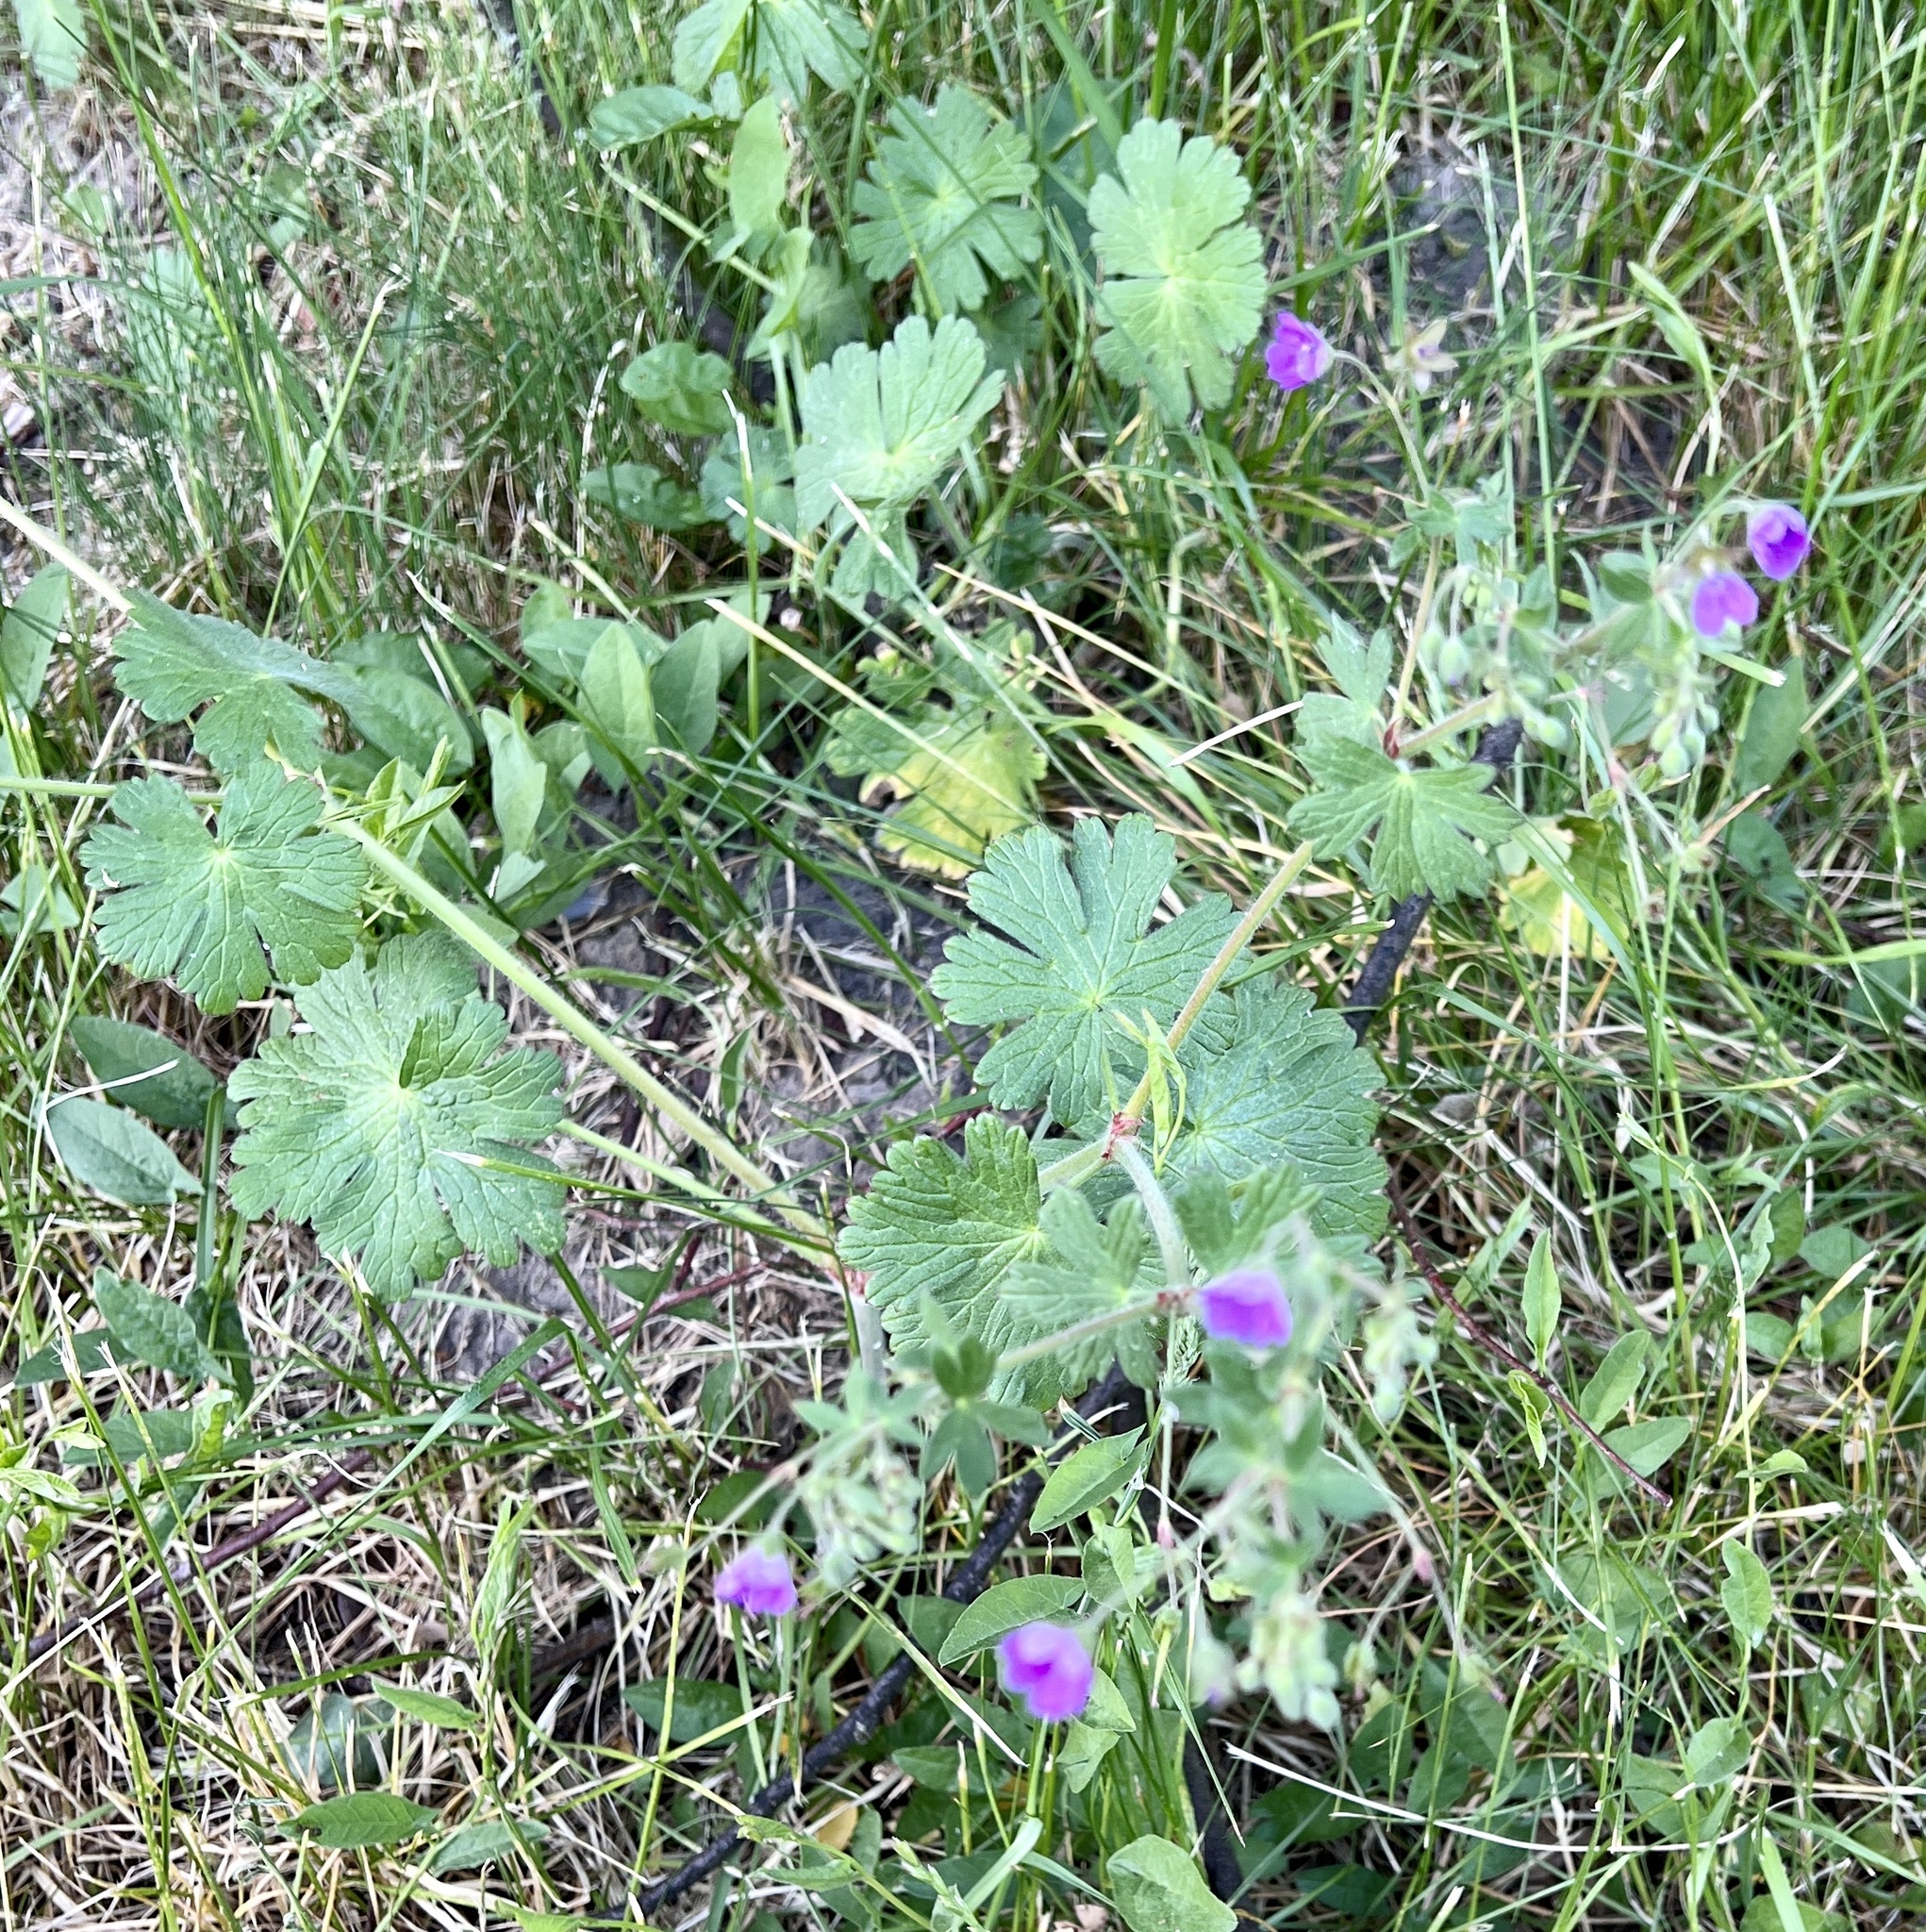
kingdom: Plantae
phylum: Tracheophyta
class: Magnoliopsida
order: Geraniales
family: Geraniaceae
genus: Geranium
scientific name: Geranium pyrenaicum
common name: Hedgerow crane's-bill
